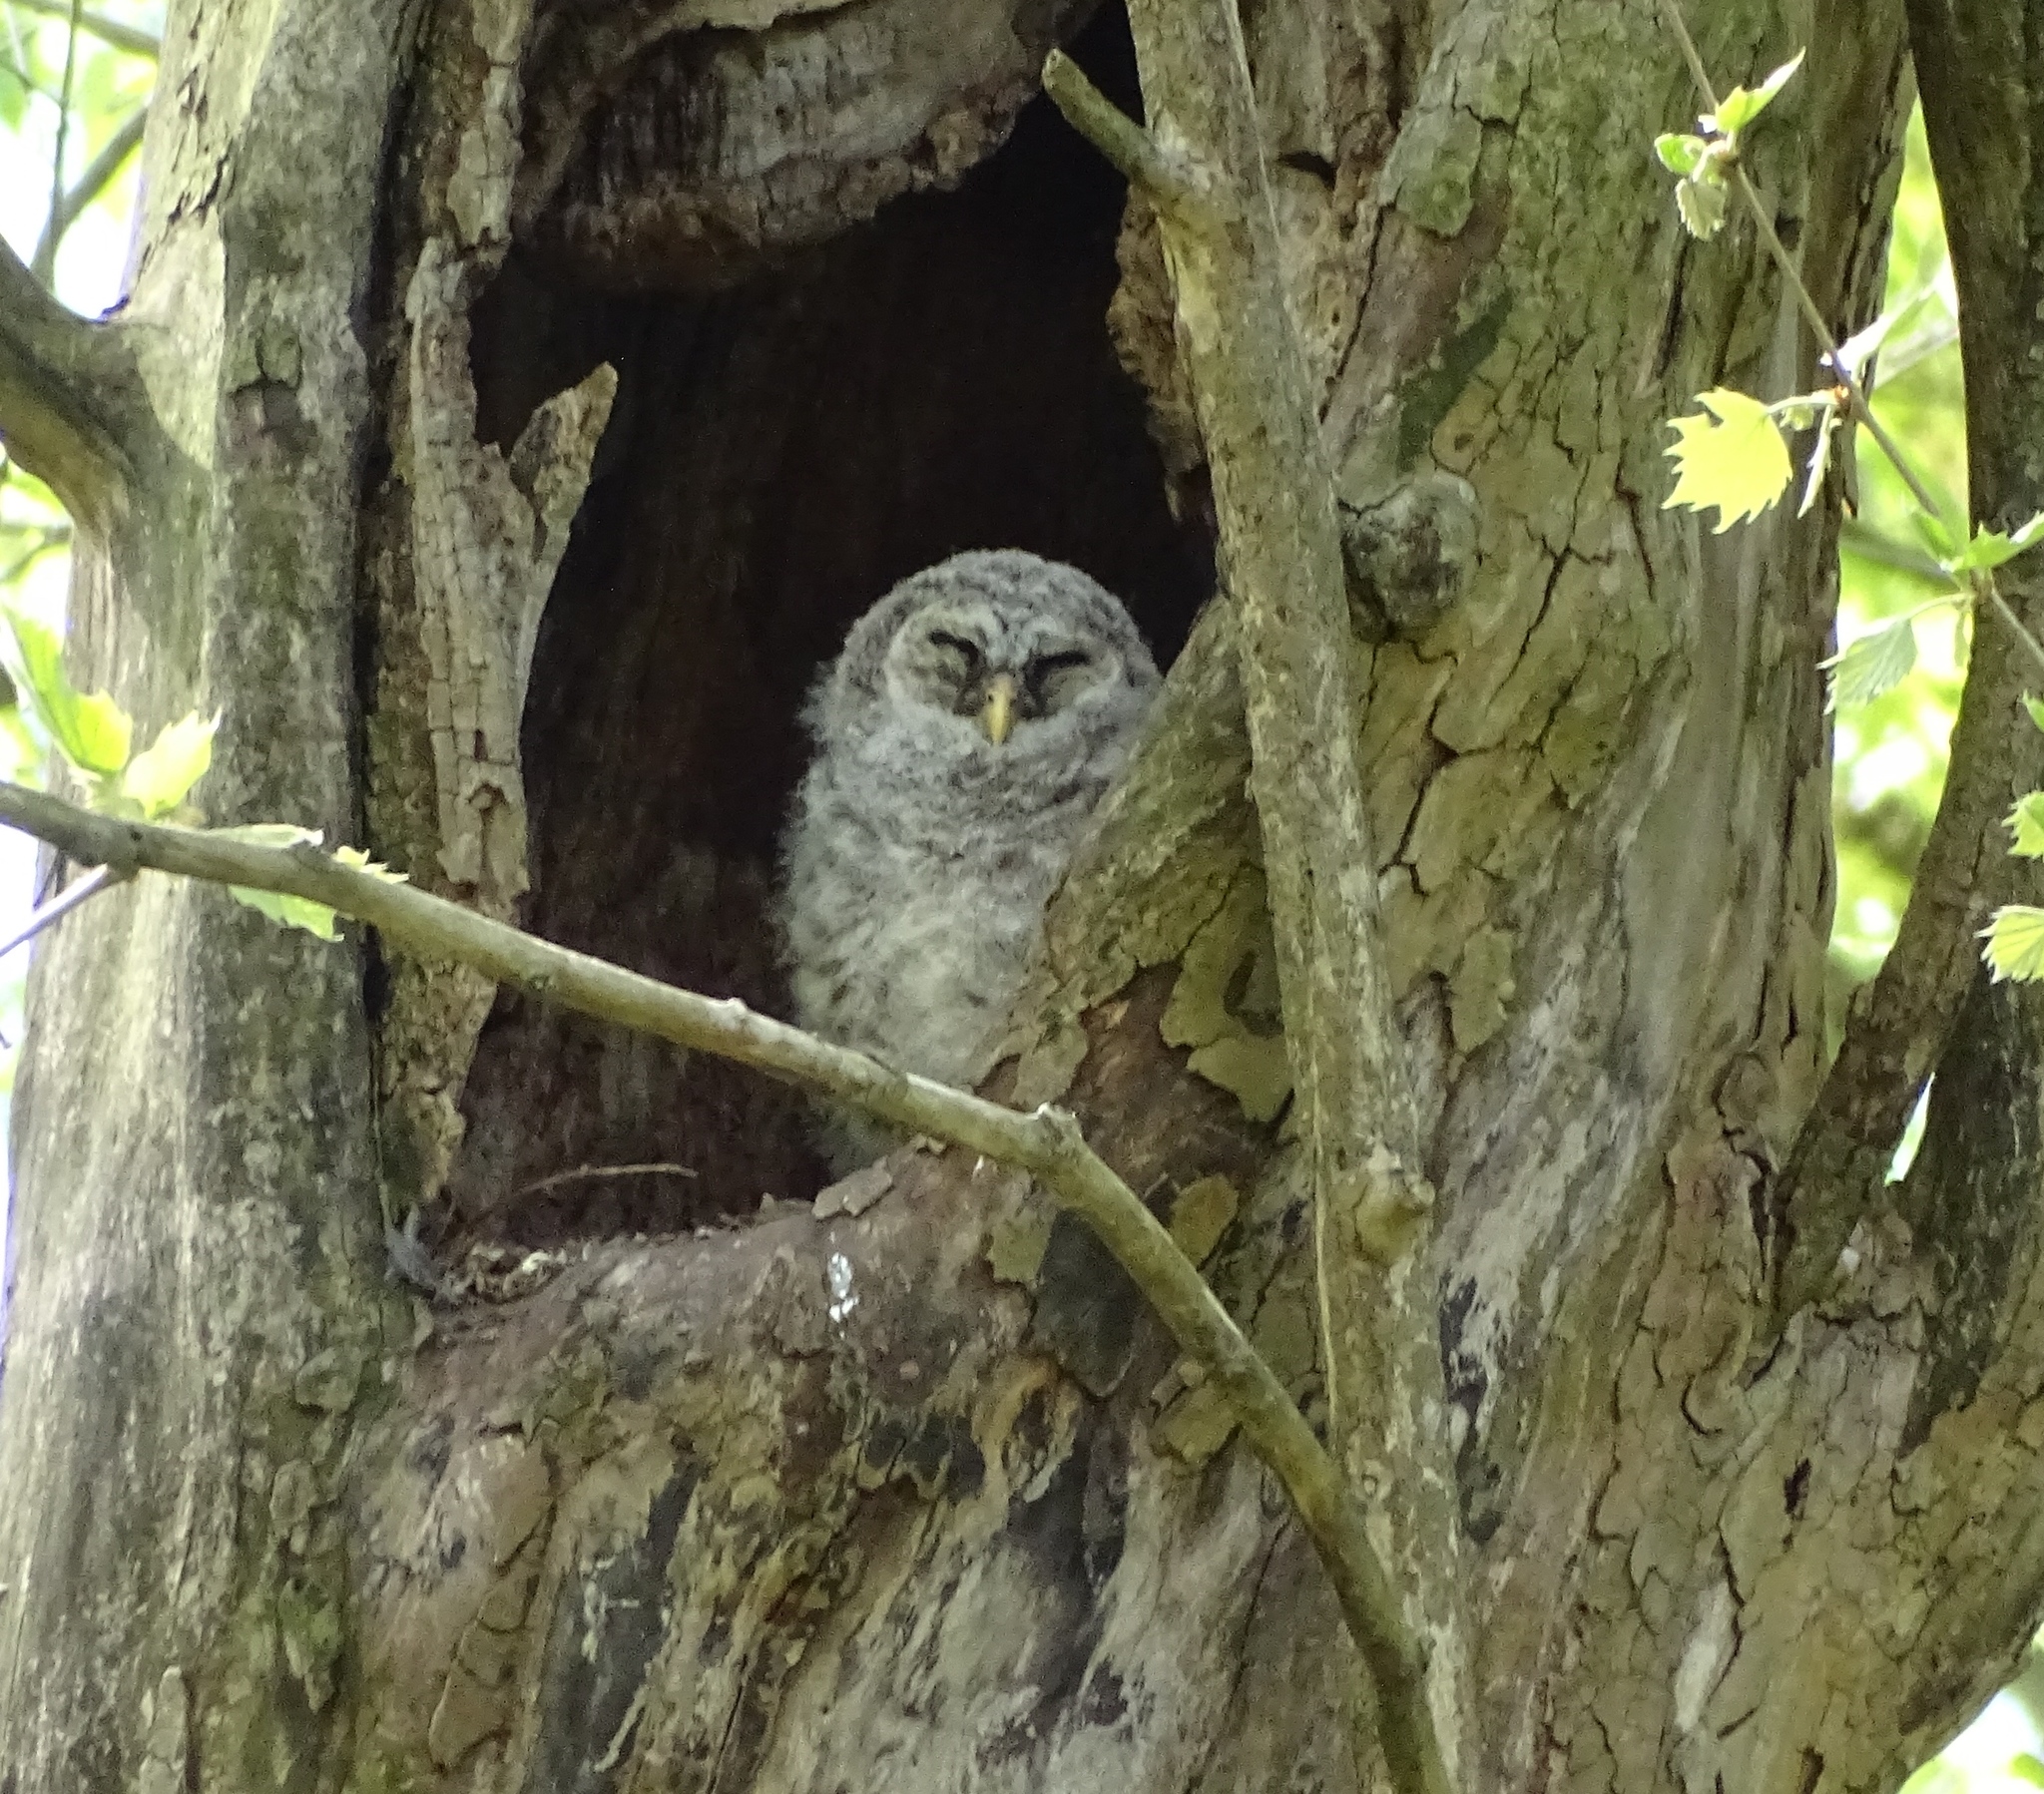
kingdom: Animalia
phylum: Chordata
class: Aves
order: Strigiformes
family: Strigidae
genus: Strix
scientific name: Strix varia
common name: Barred owl
